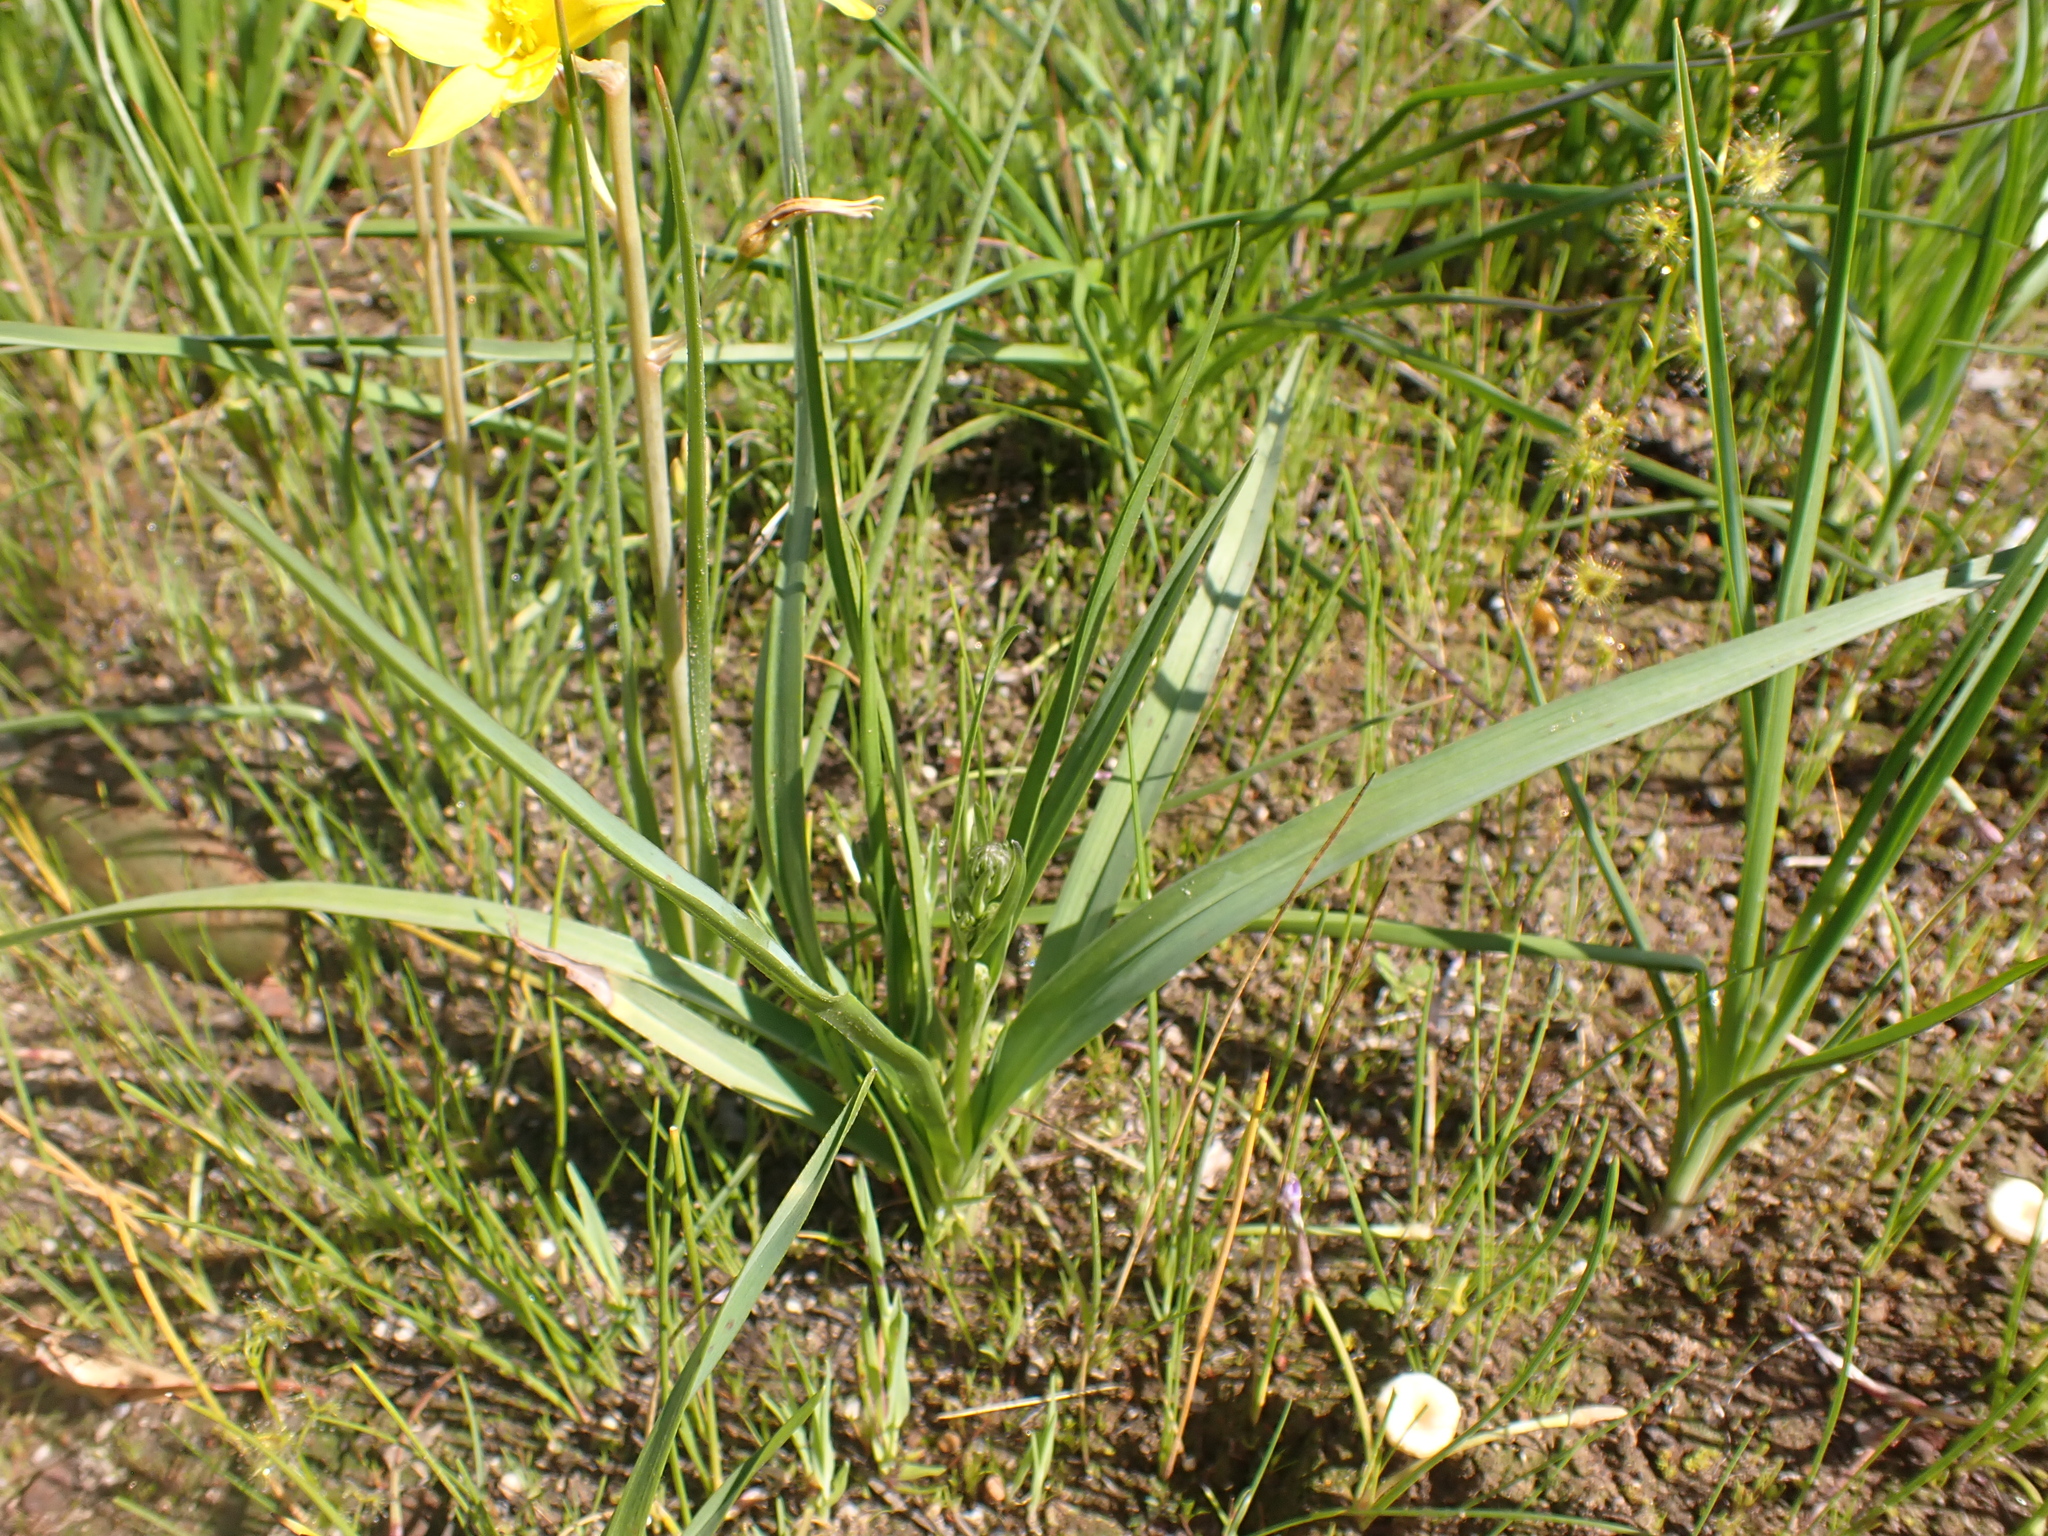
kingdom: Plantae
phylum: Tracheophyta
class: Liliopsida
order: Asparagales
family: Asphodelaceae
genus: Caesia
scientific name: Caesia calliantha
